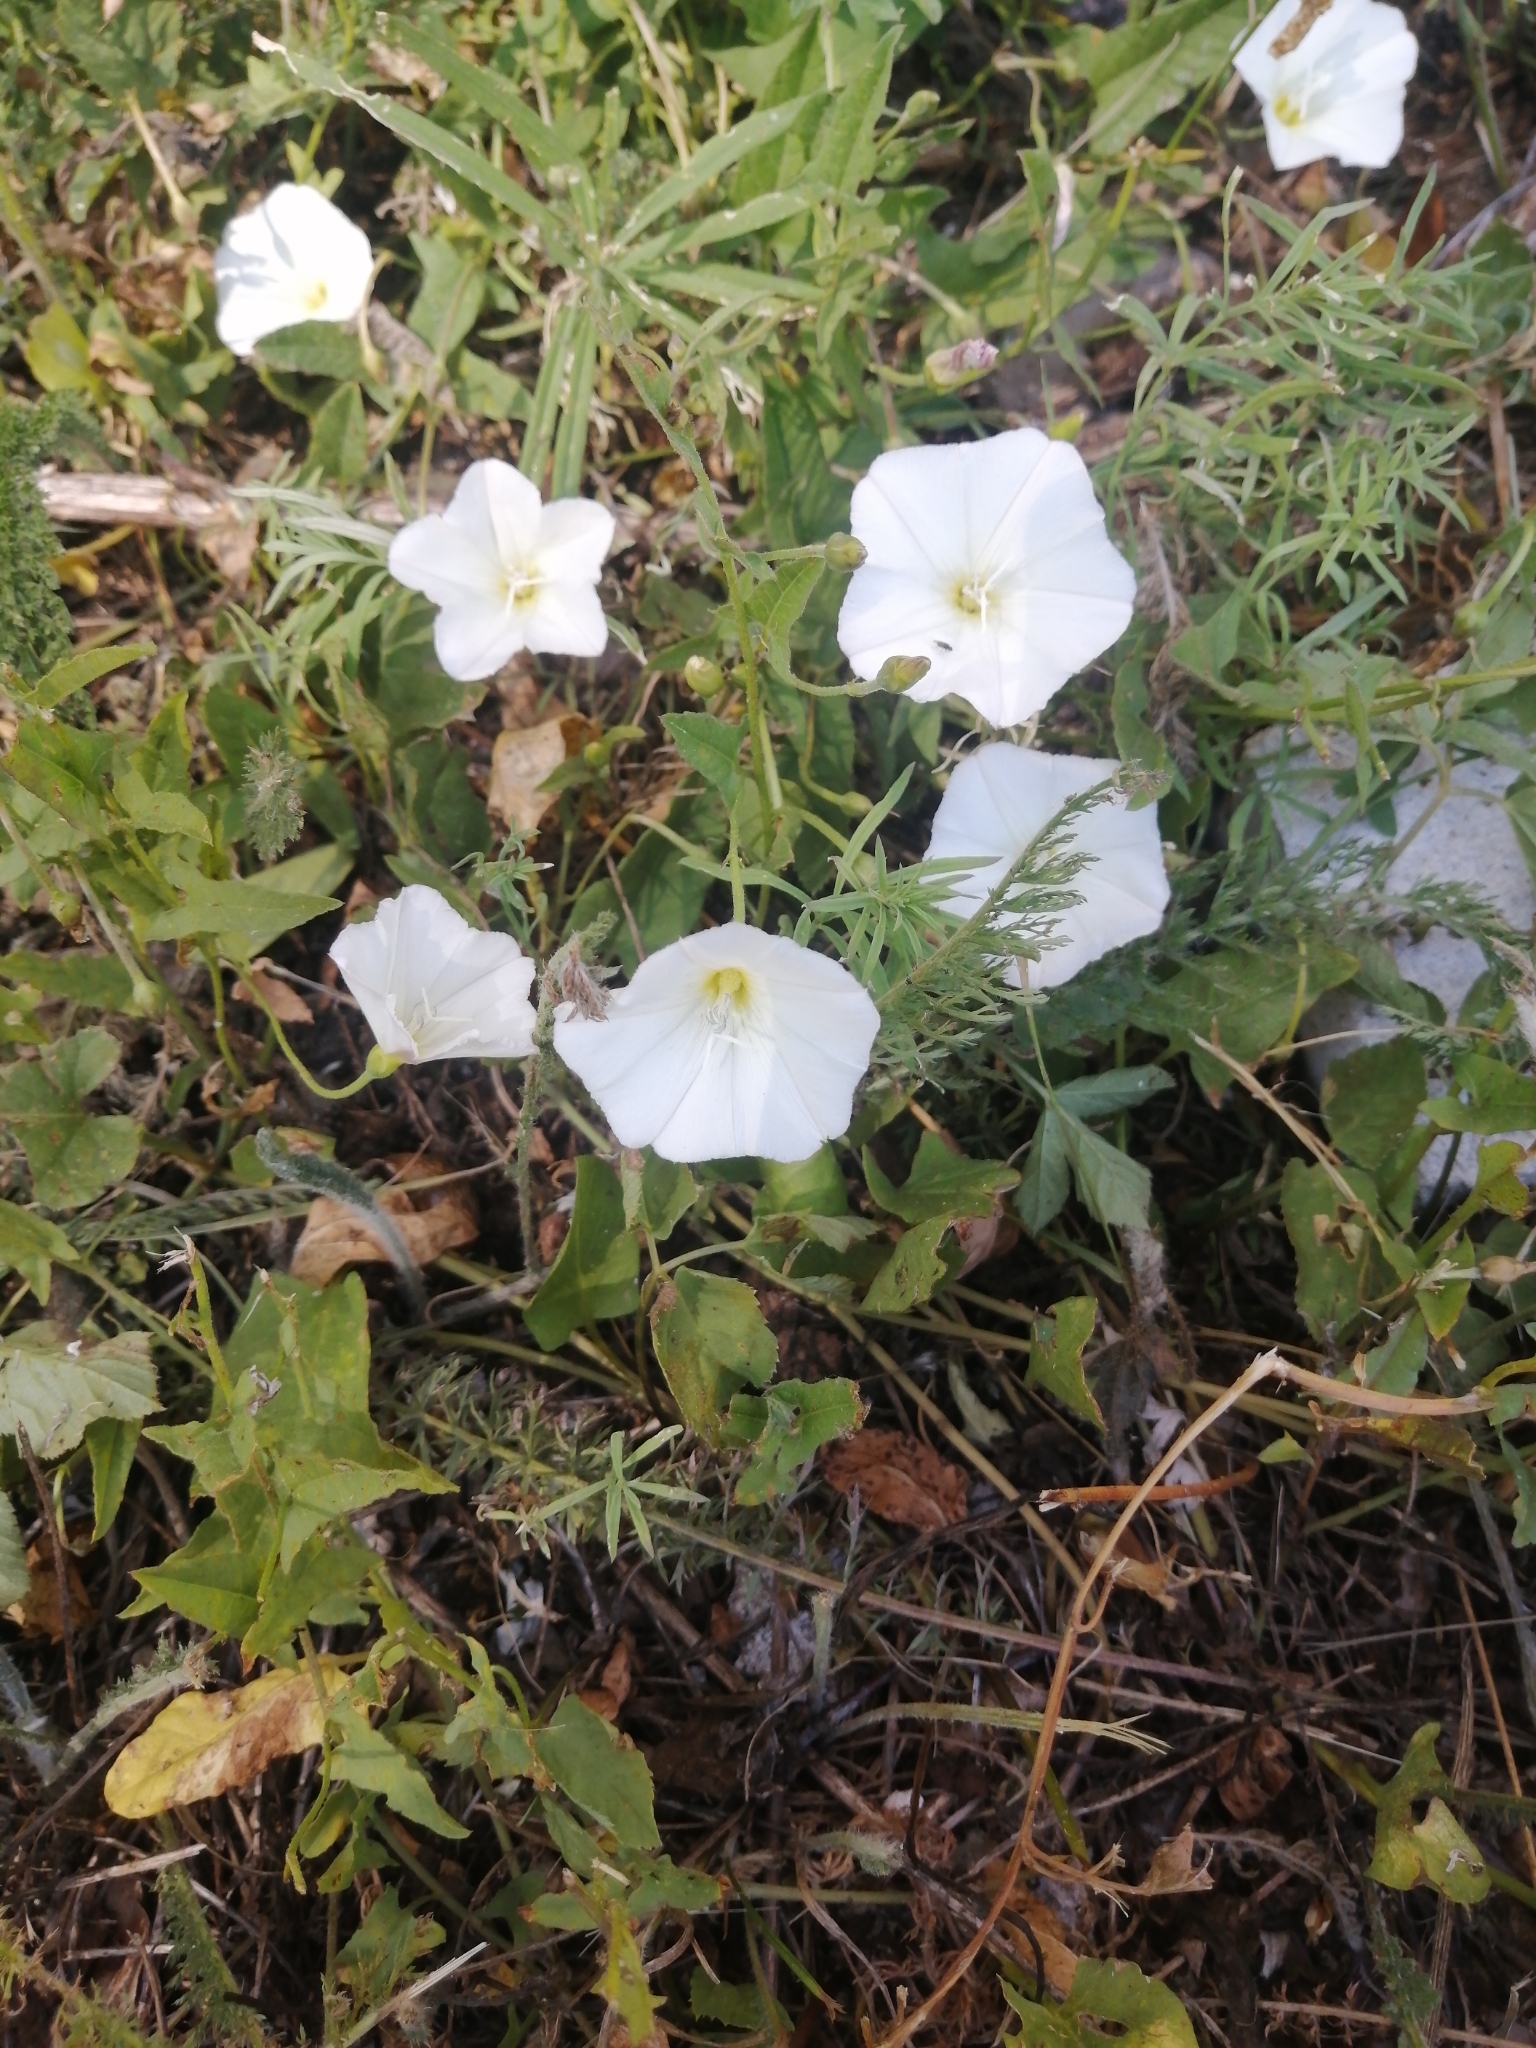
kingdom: Plantae
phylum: Tracheophyta
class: Magnoliopsida
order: Solanales
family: Convolvulaceae
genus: Convolvulus
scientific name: Convolvulus arvensis
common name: Field bindweed
